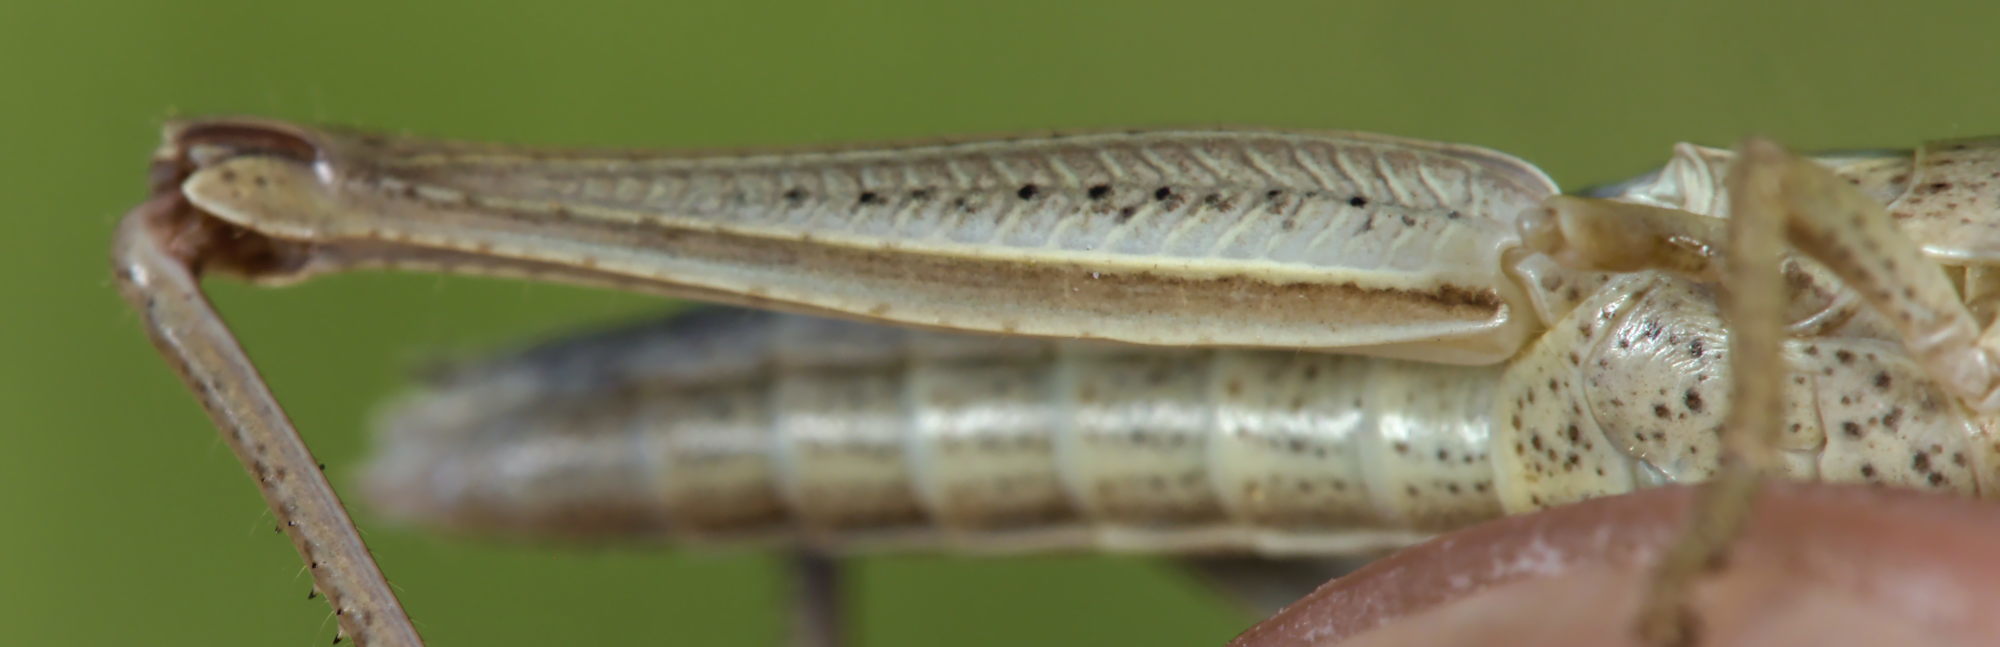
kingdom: Animalia
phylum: Arthropoda
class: Insecta
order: Orthoptera
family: Acrididae
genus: Chrysochraon
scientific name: Chrysochraon dispar
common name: Large gold grasshopper
